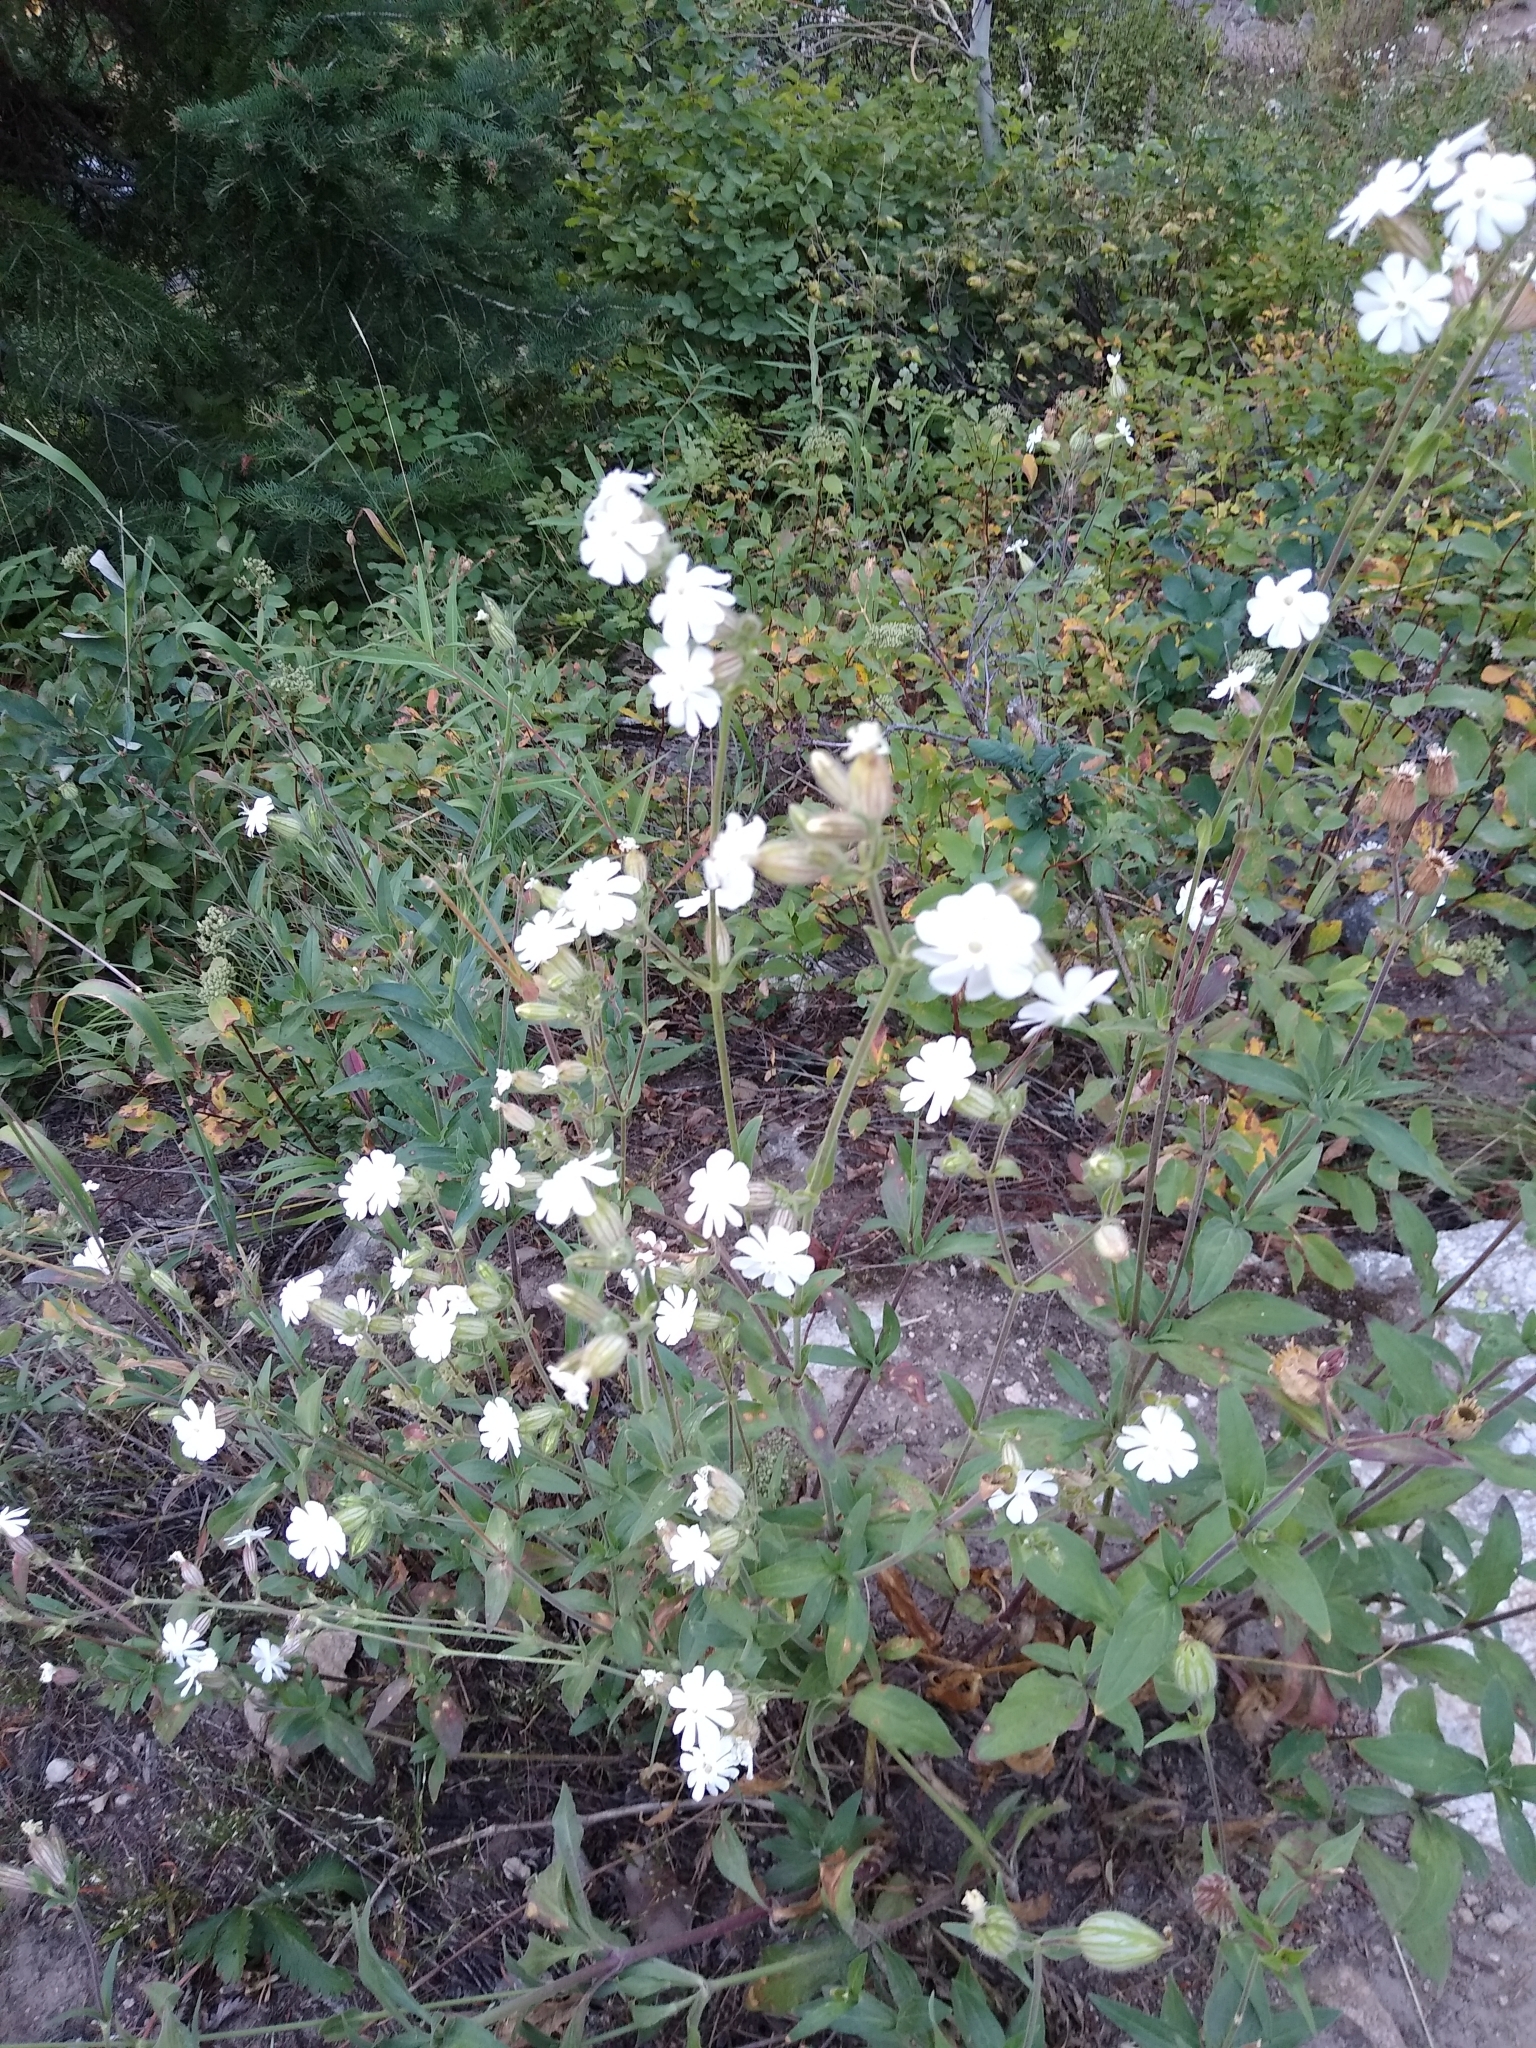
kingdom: Plantae
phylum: Tracheophyta
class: Magnoliopsida
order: Caryophyllales
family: Caryophyllaceae
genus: Silene
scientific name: Silene latifolia
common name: White campion
